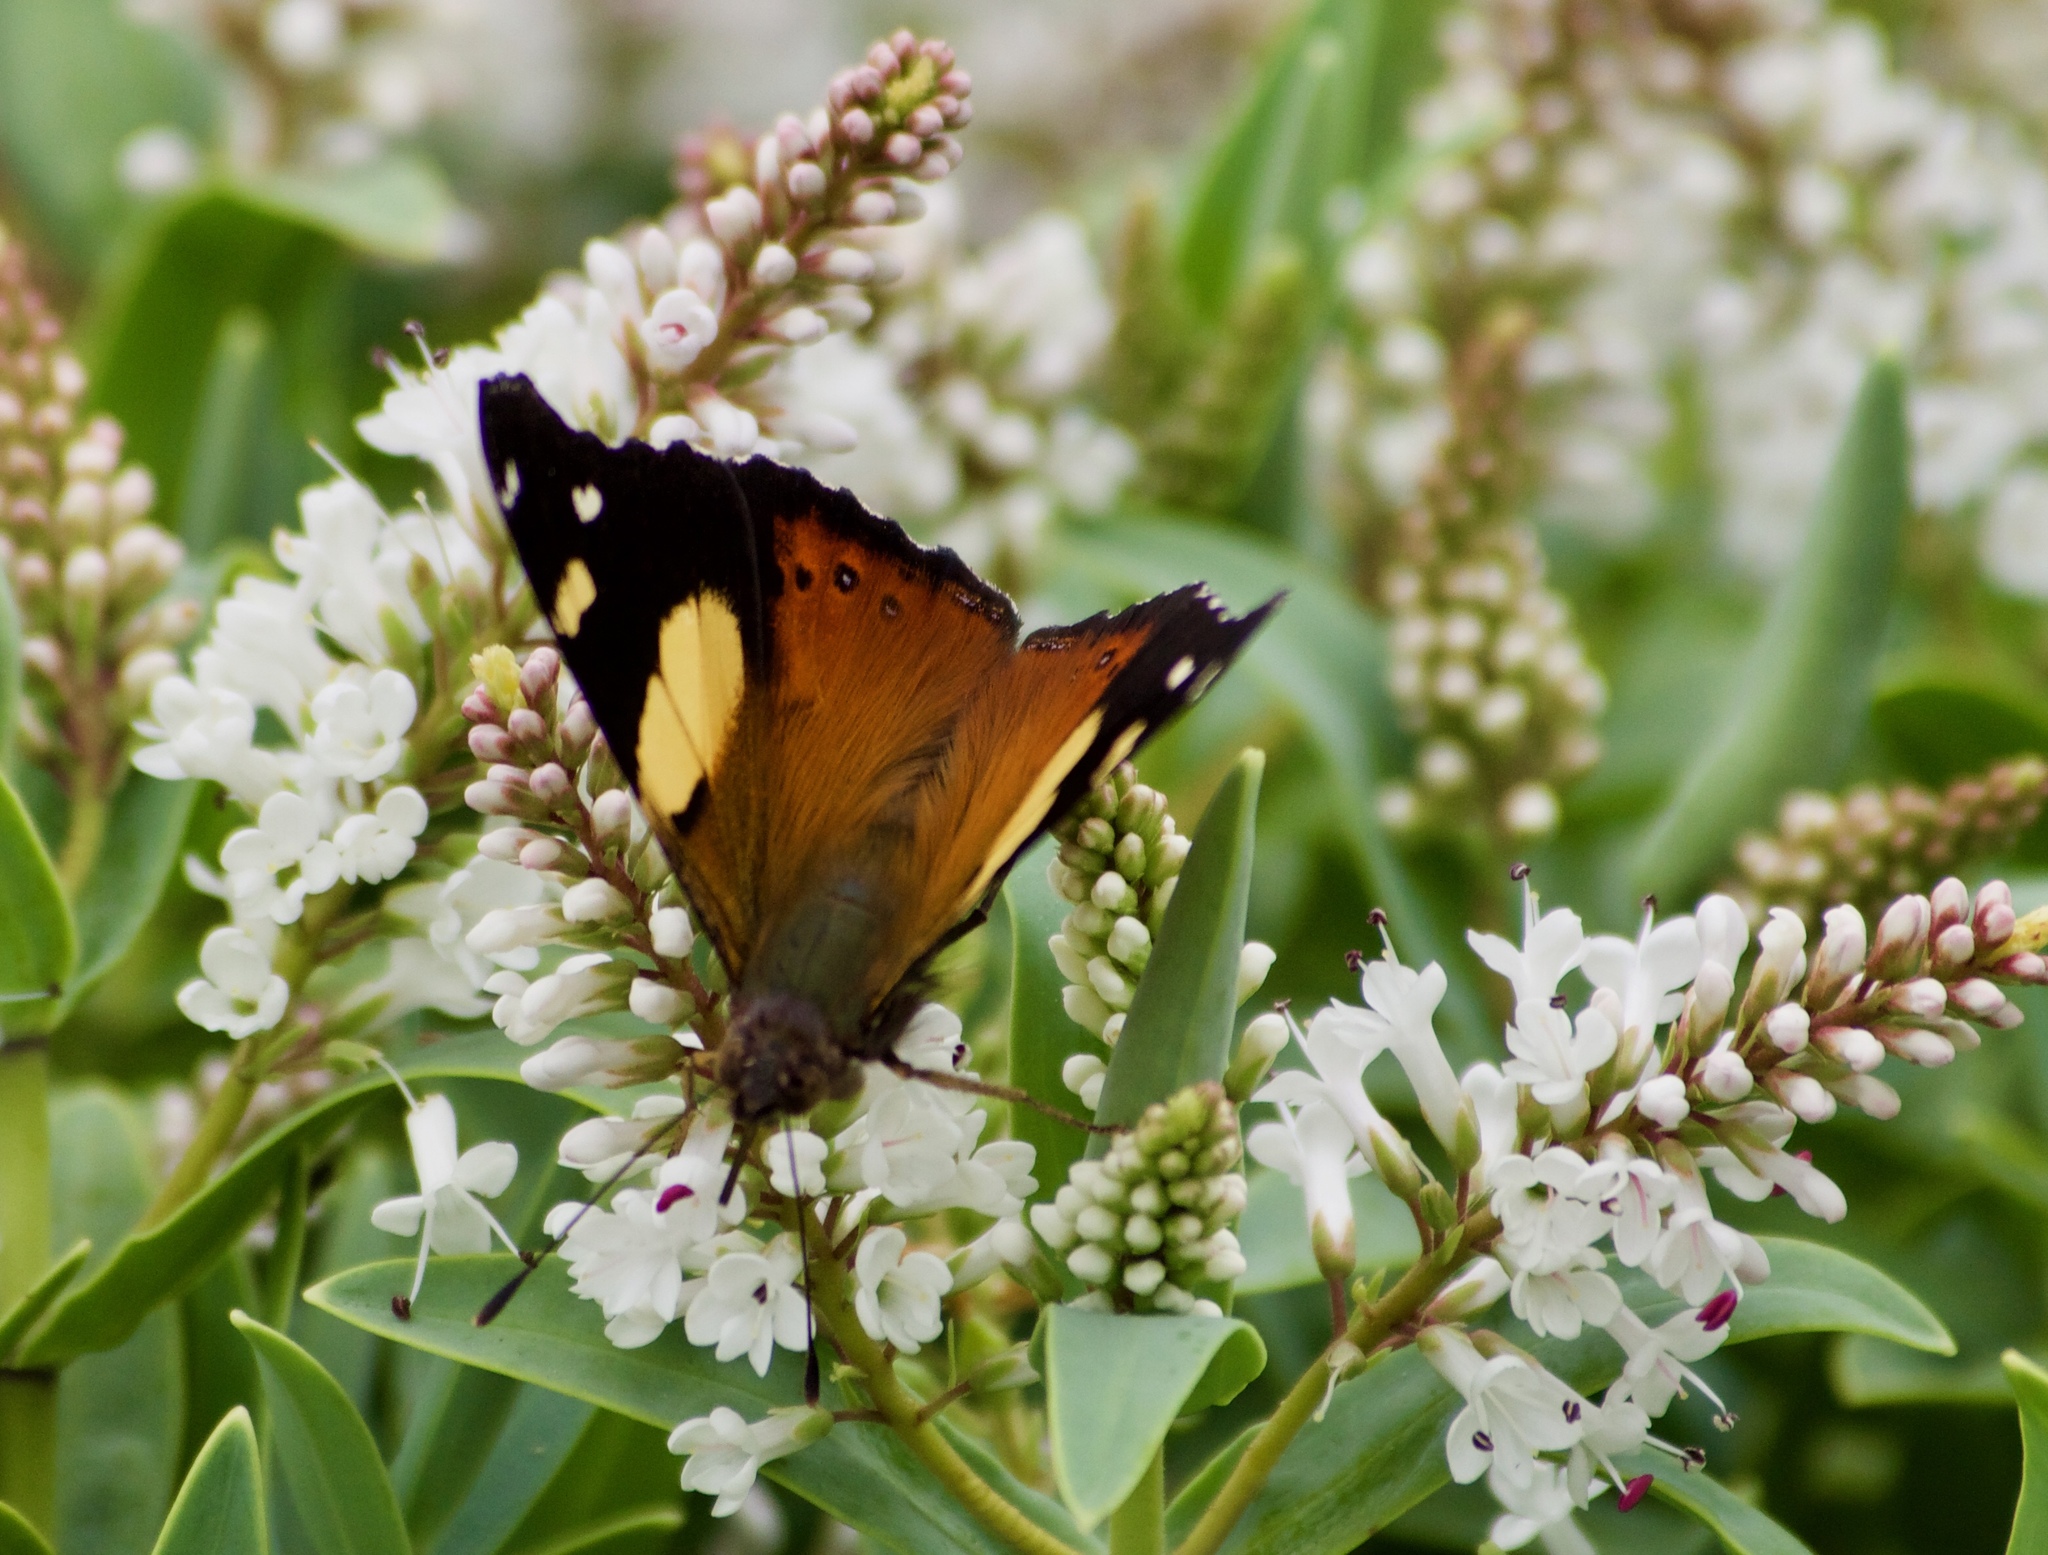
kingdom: Animalia
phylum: Arthropoda
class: Insecta
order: Lepidoptera
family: Nymphalidae
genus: Vanessa
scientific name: Vanessa itea
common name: Yellow admiral
